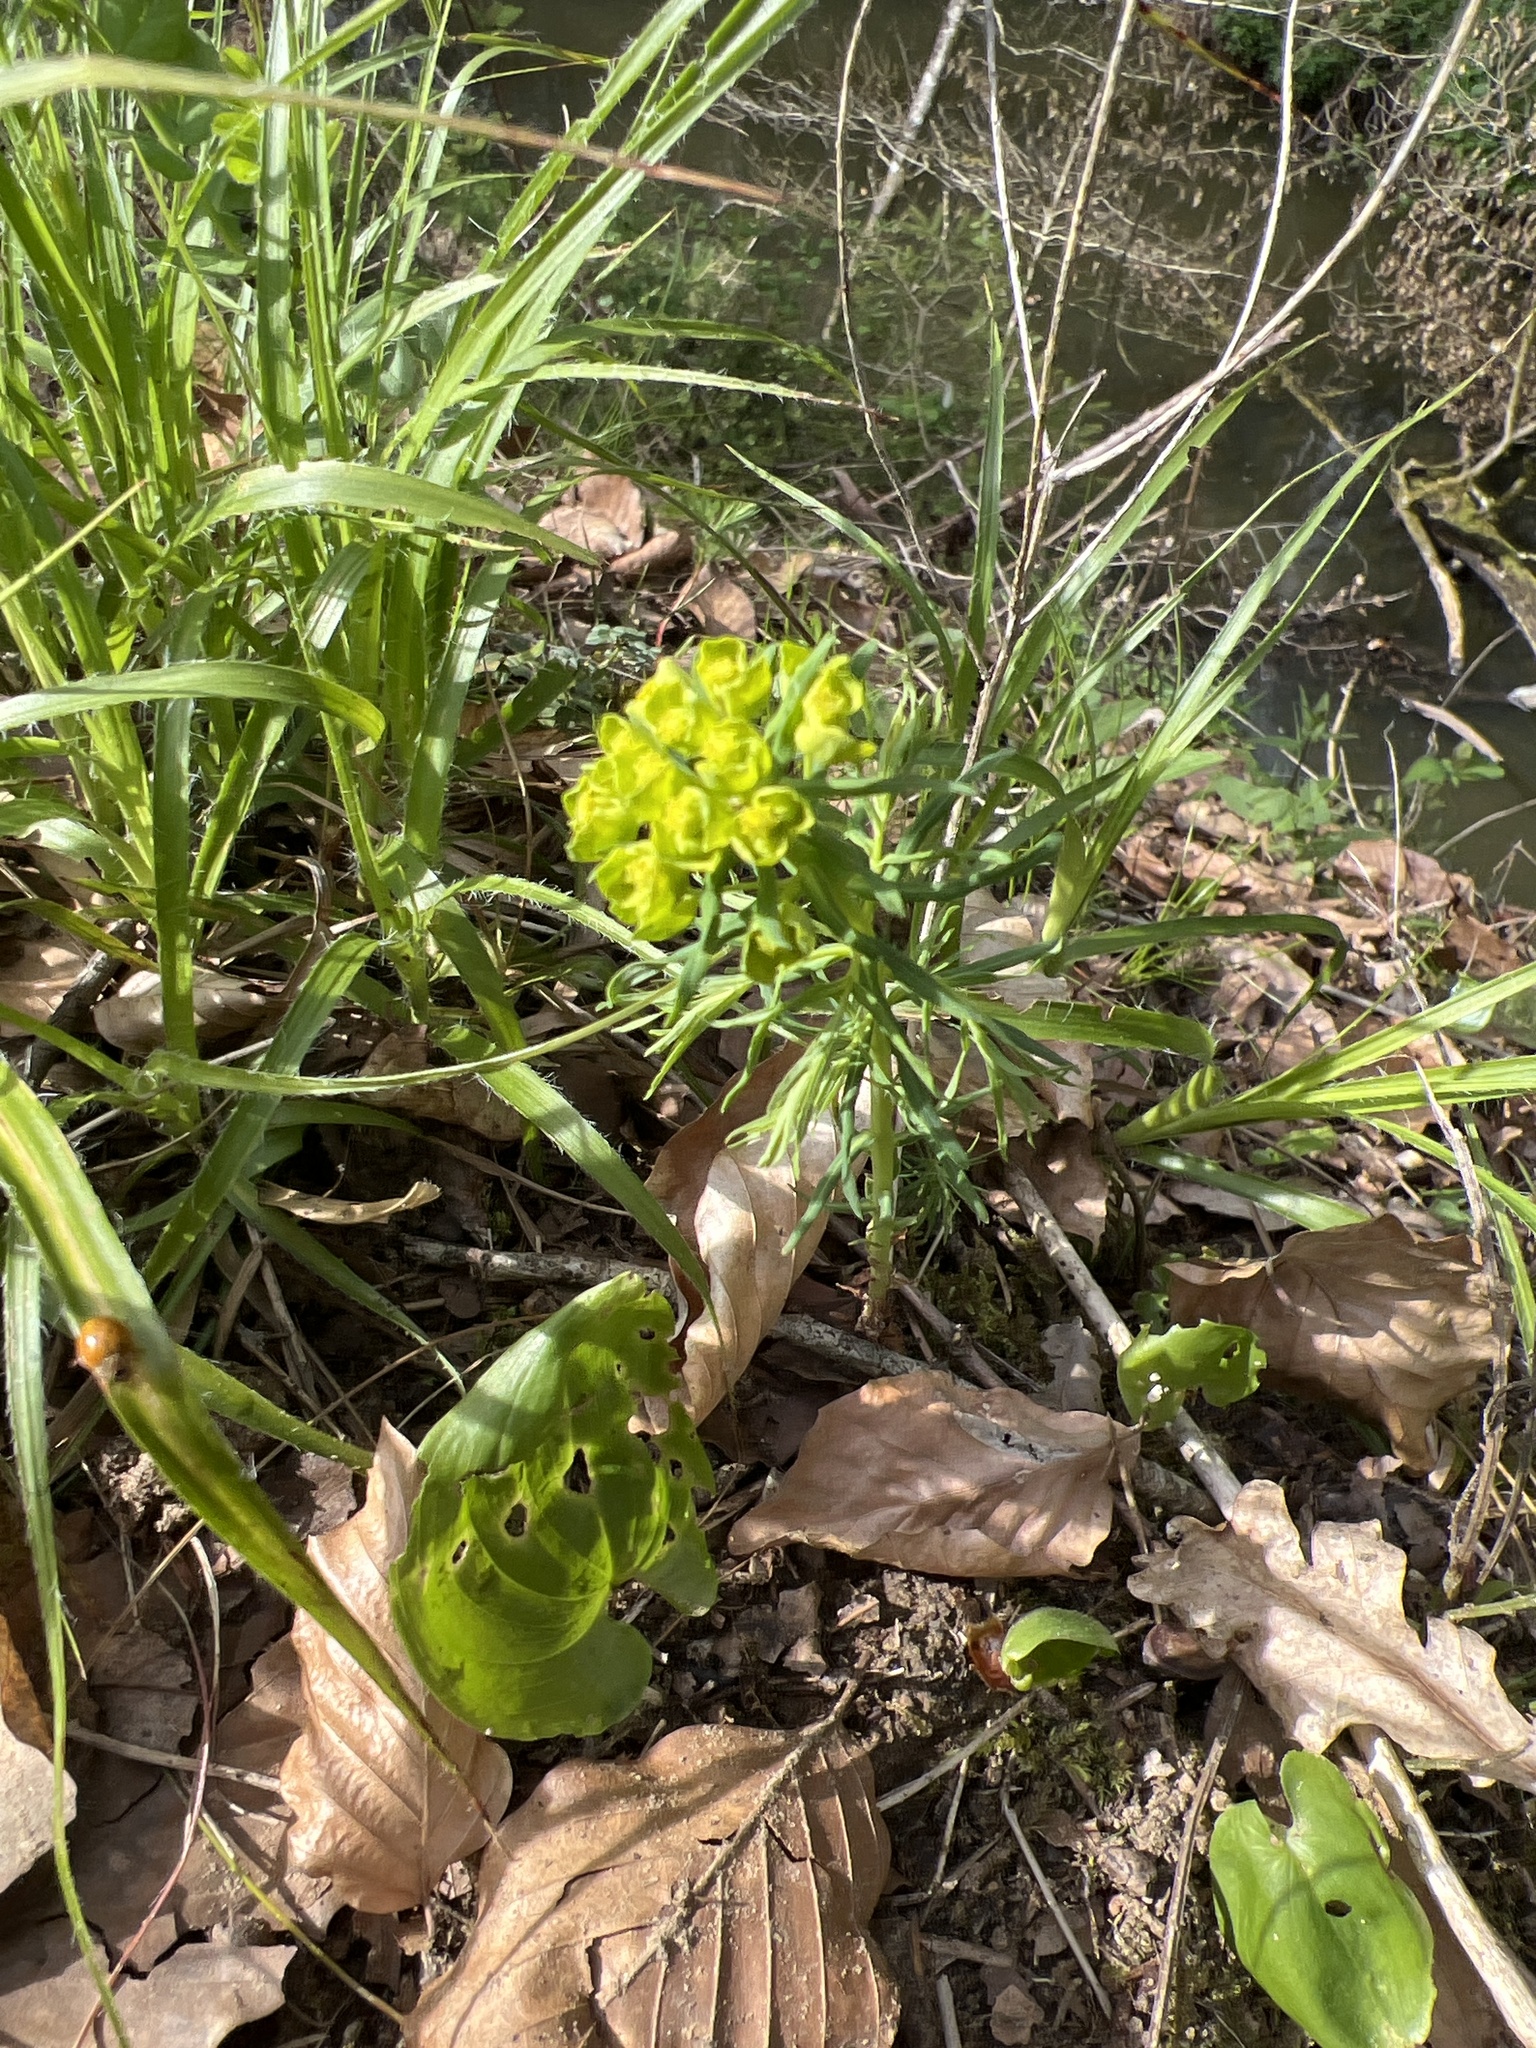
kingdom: Plantae
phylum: Tracheophyta
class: Magnoliopsida
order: Malpighiales
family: Euphorbiaceae
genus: Euphorbia
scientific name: Euphorbia cyparissias
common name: Cypress spurge
